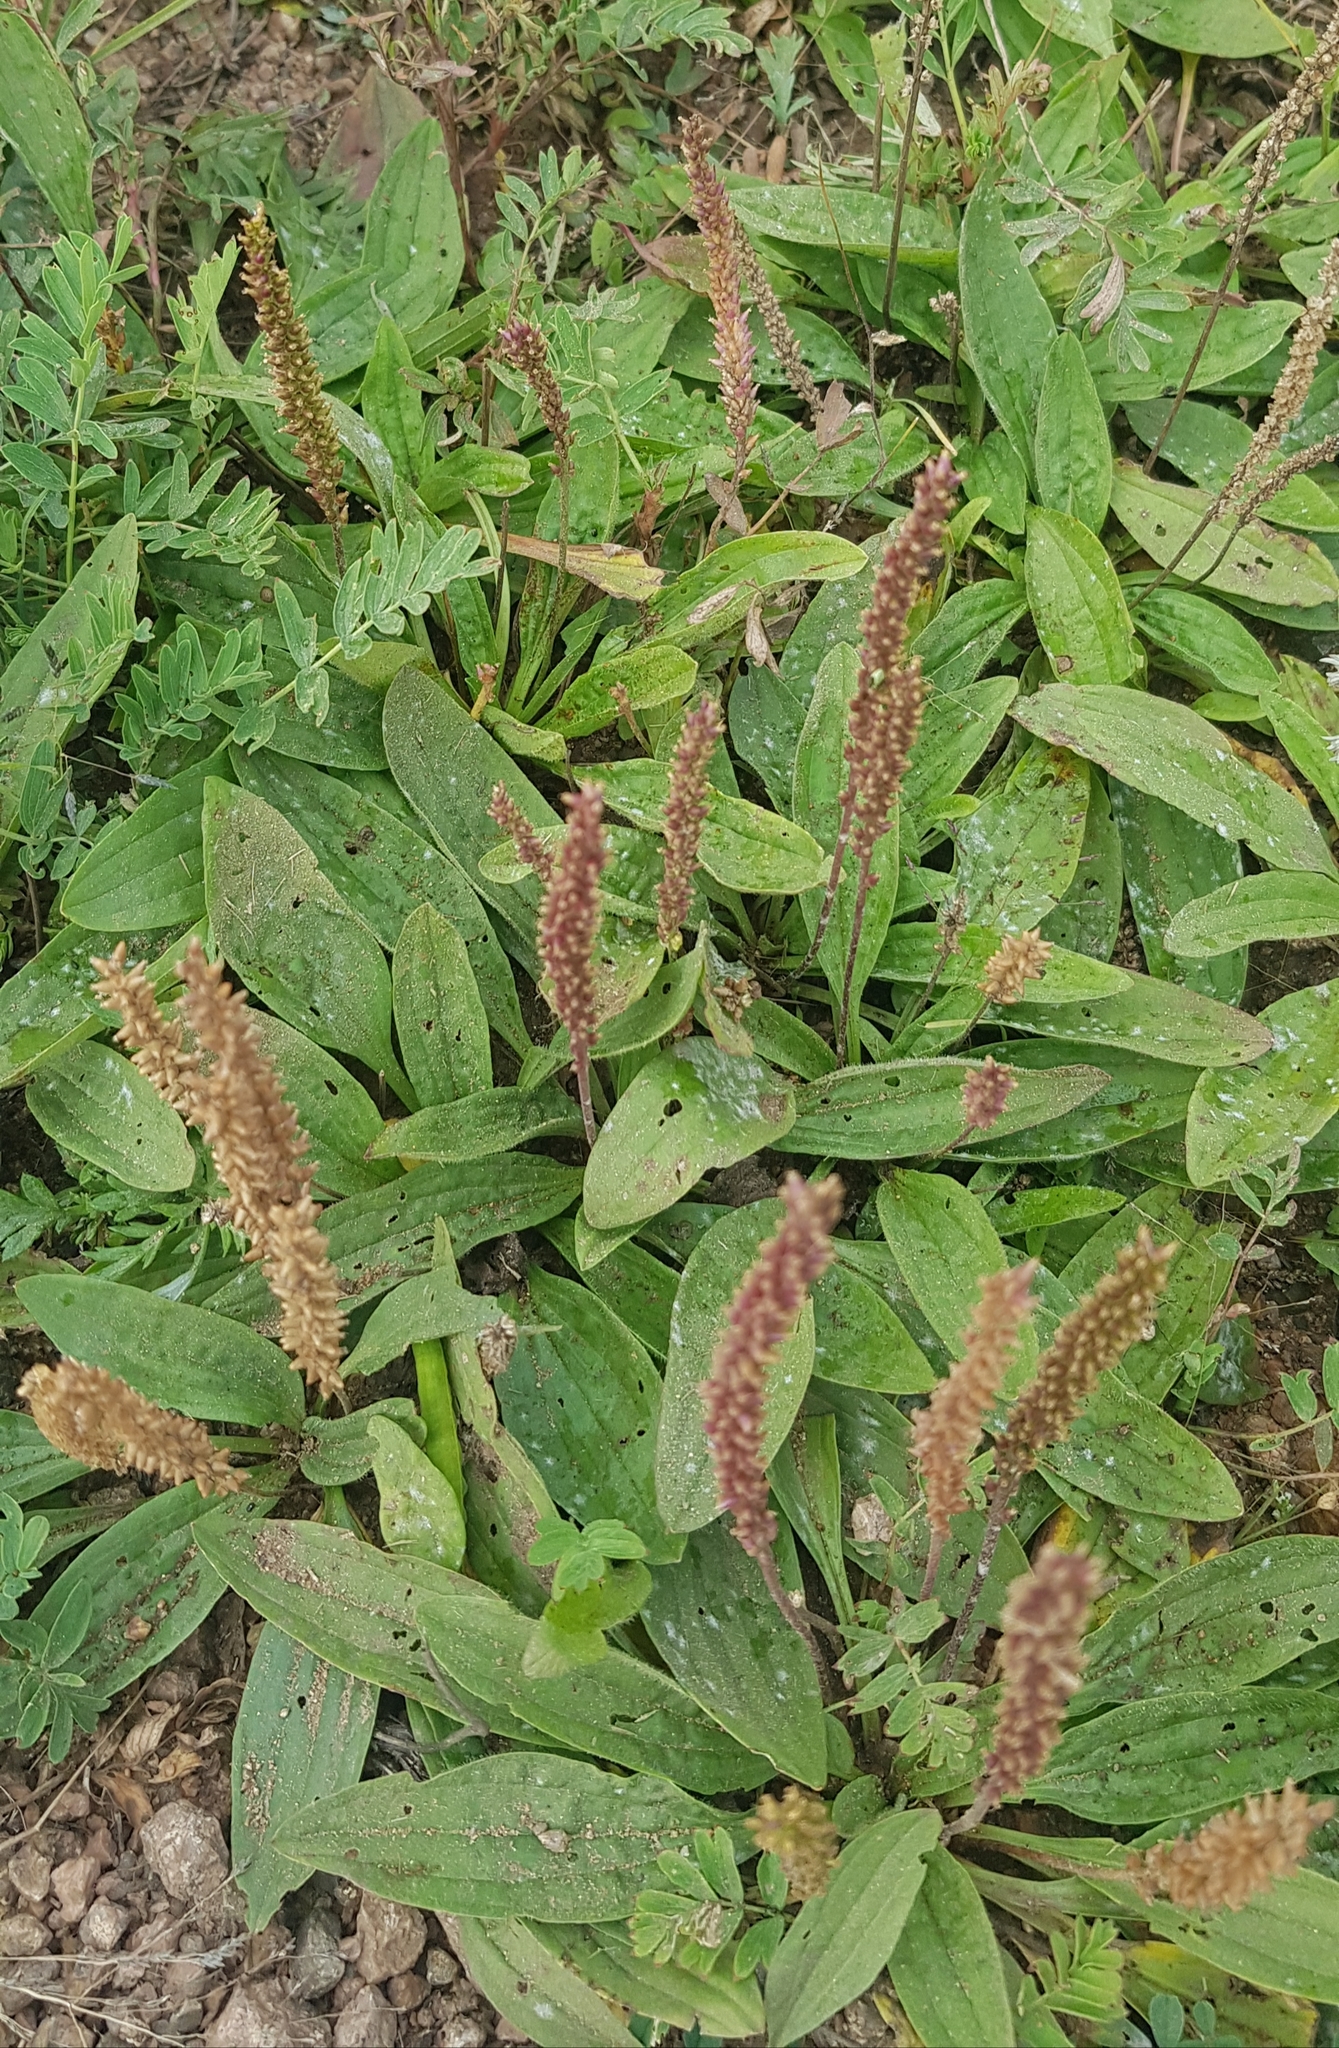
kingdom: Plantae
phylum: Tracheophyta
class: Magnoliopsida
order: Lamiales
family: Plantaginaceae
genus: Plantago
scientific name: Plantago depressa
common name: Depressed plantain
